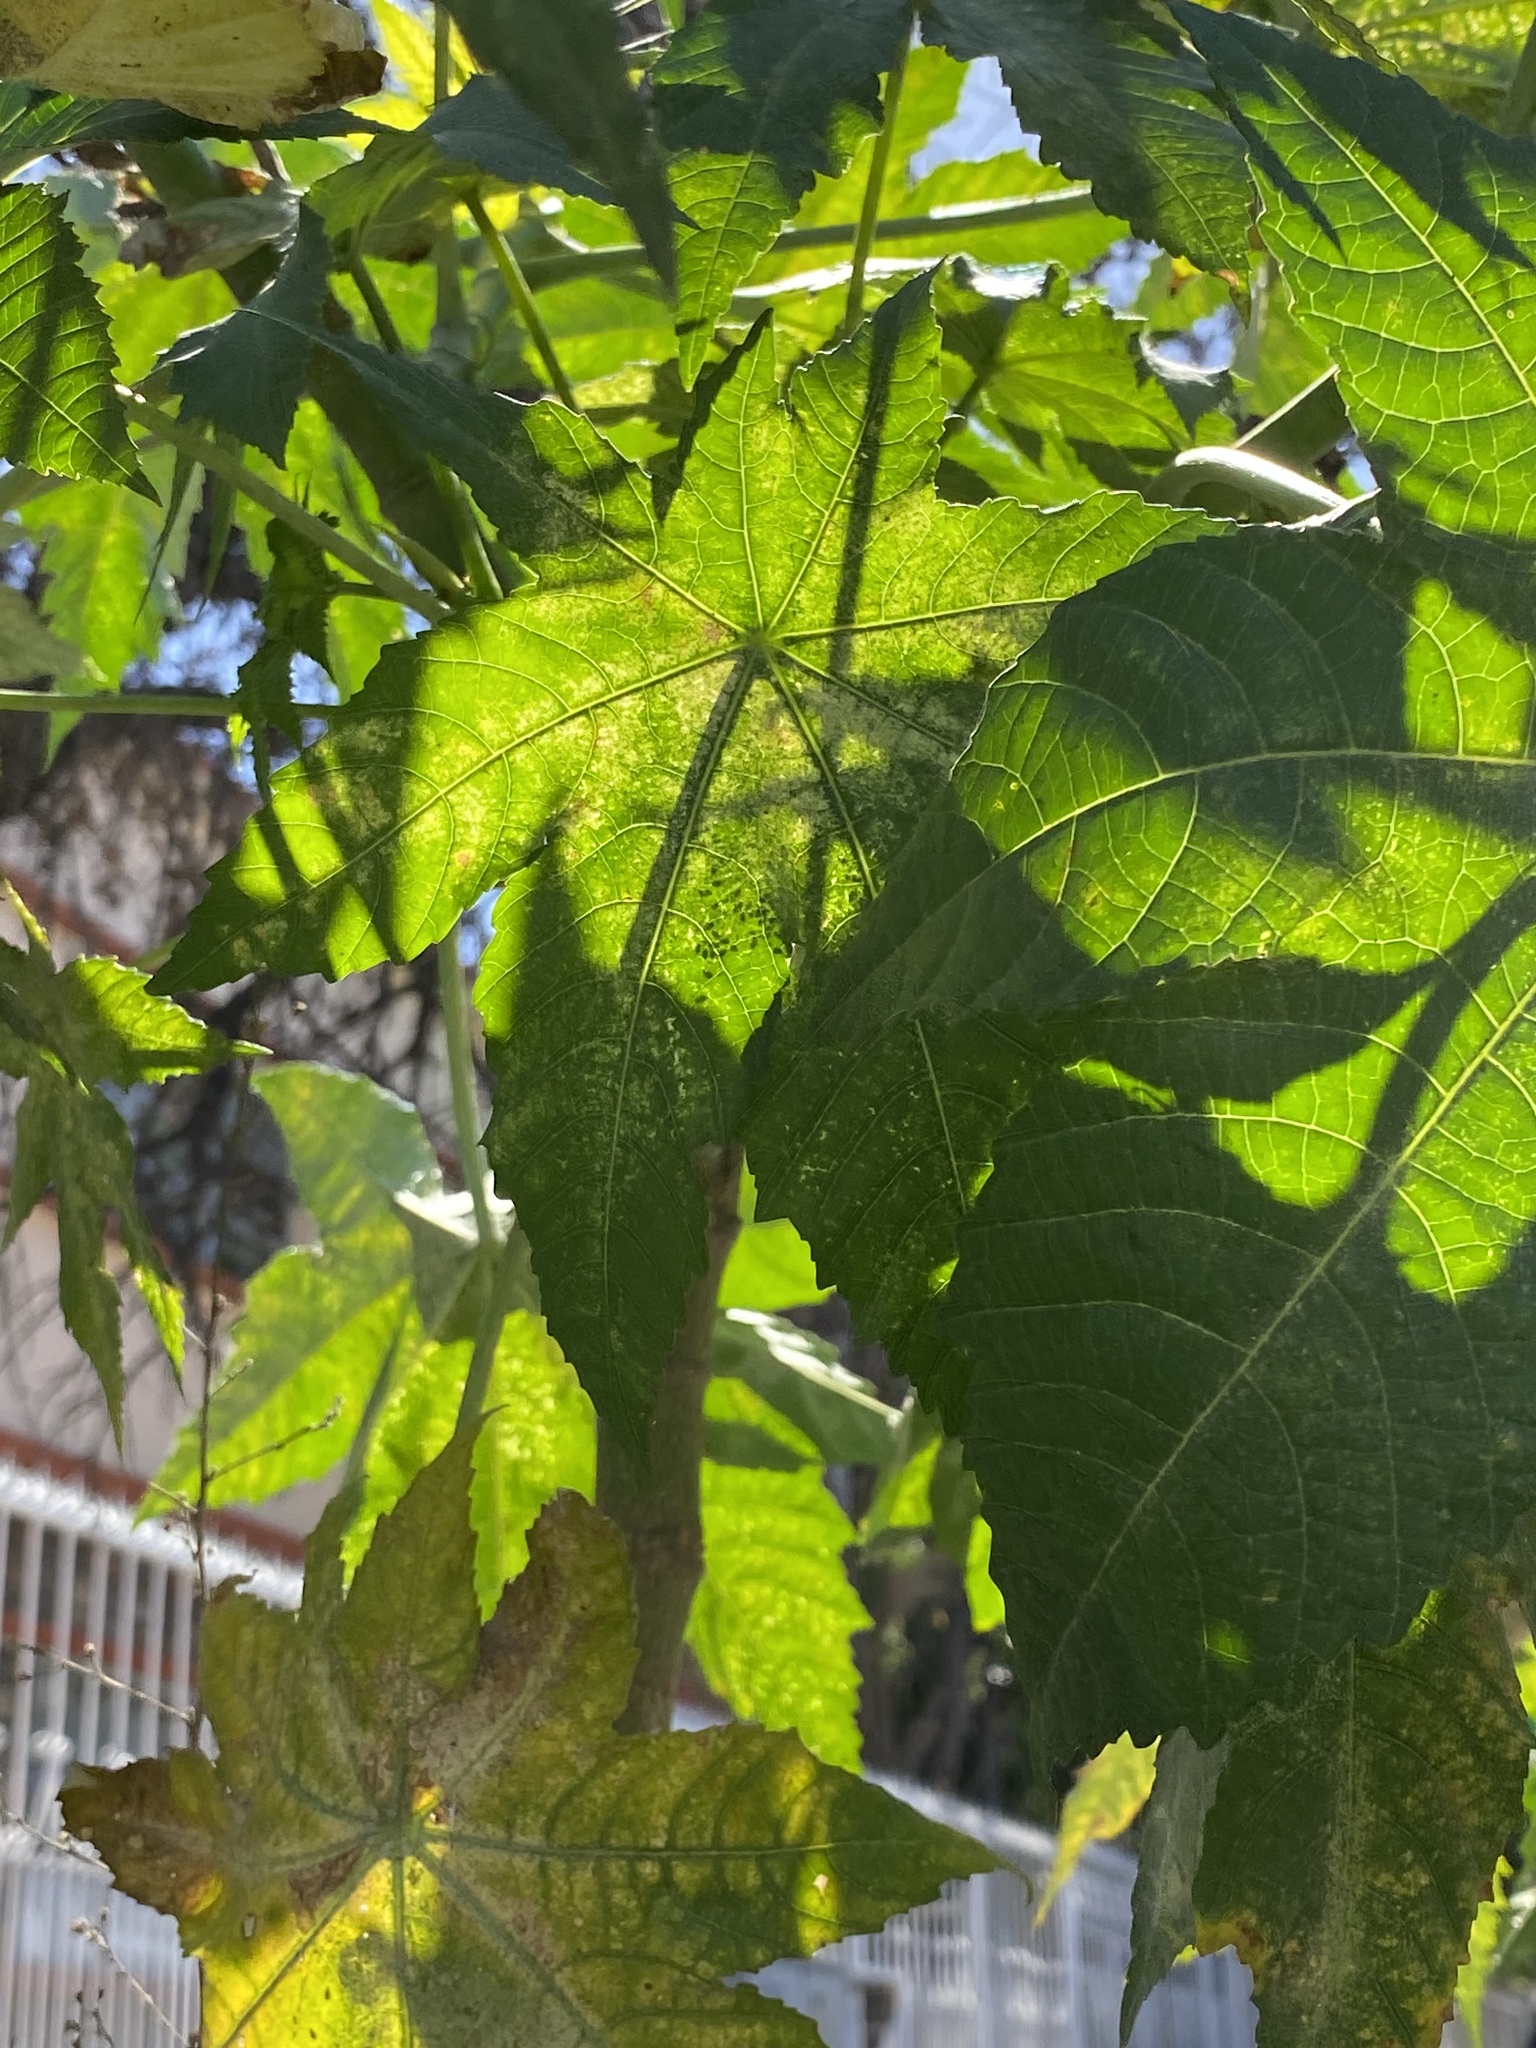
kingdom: Plantae
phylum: Tracheophyta
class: Magnoliopsida
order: Malpighiales
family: Euphorbiaceae
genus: Ricinus
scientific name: Ricinus communis
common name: Castor-oil-plant
